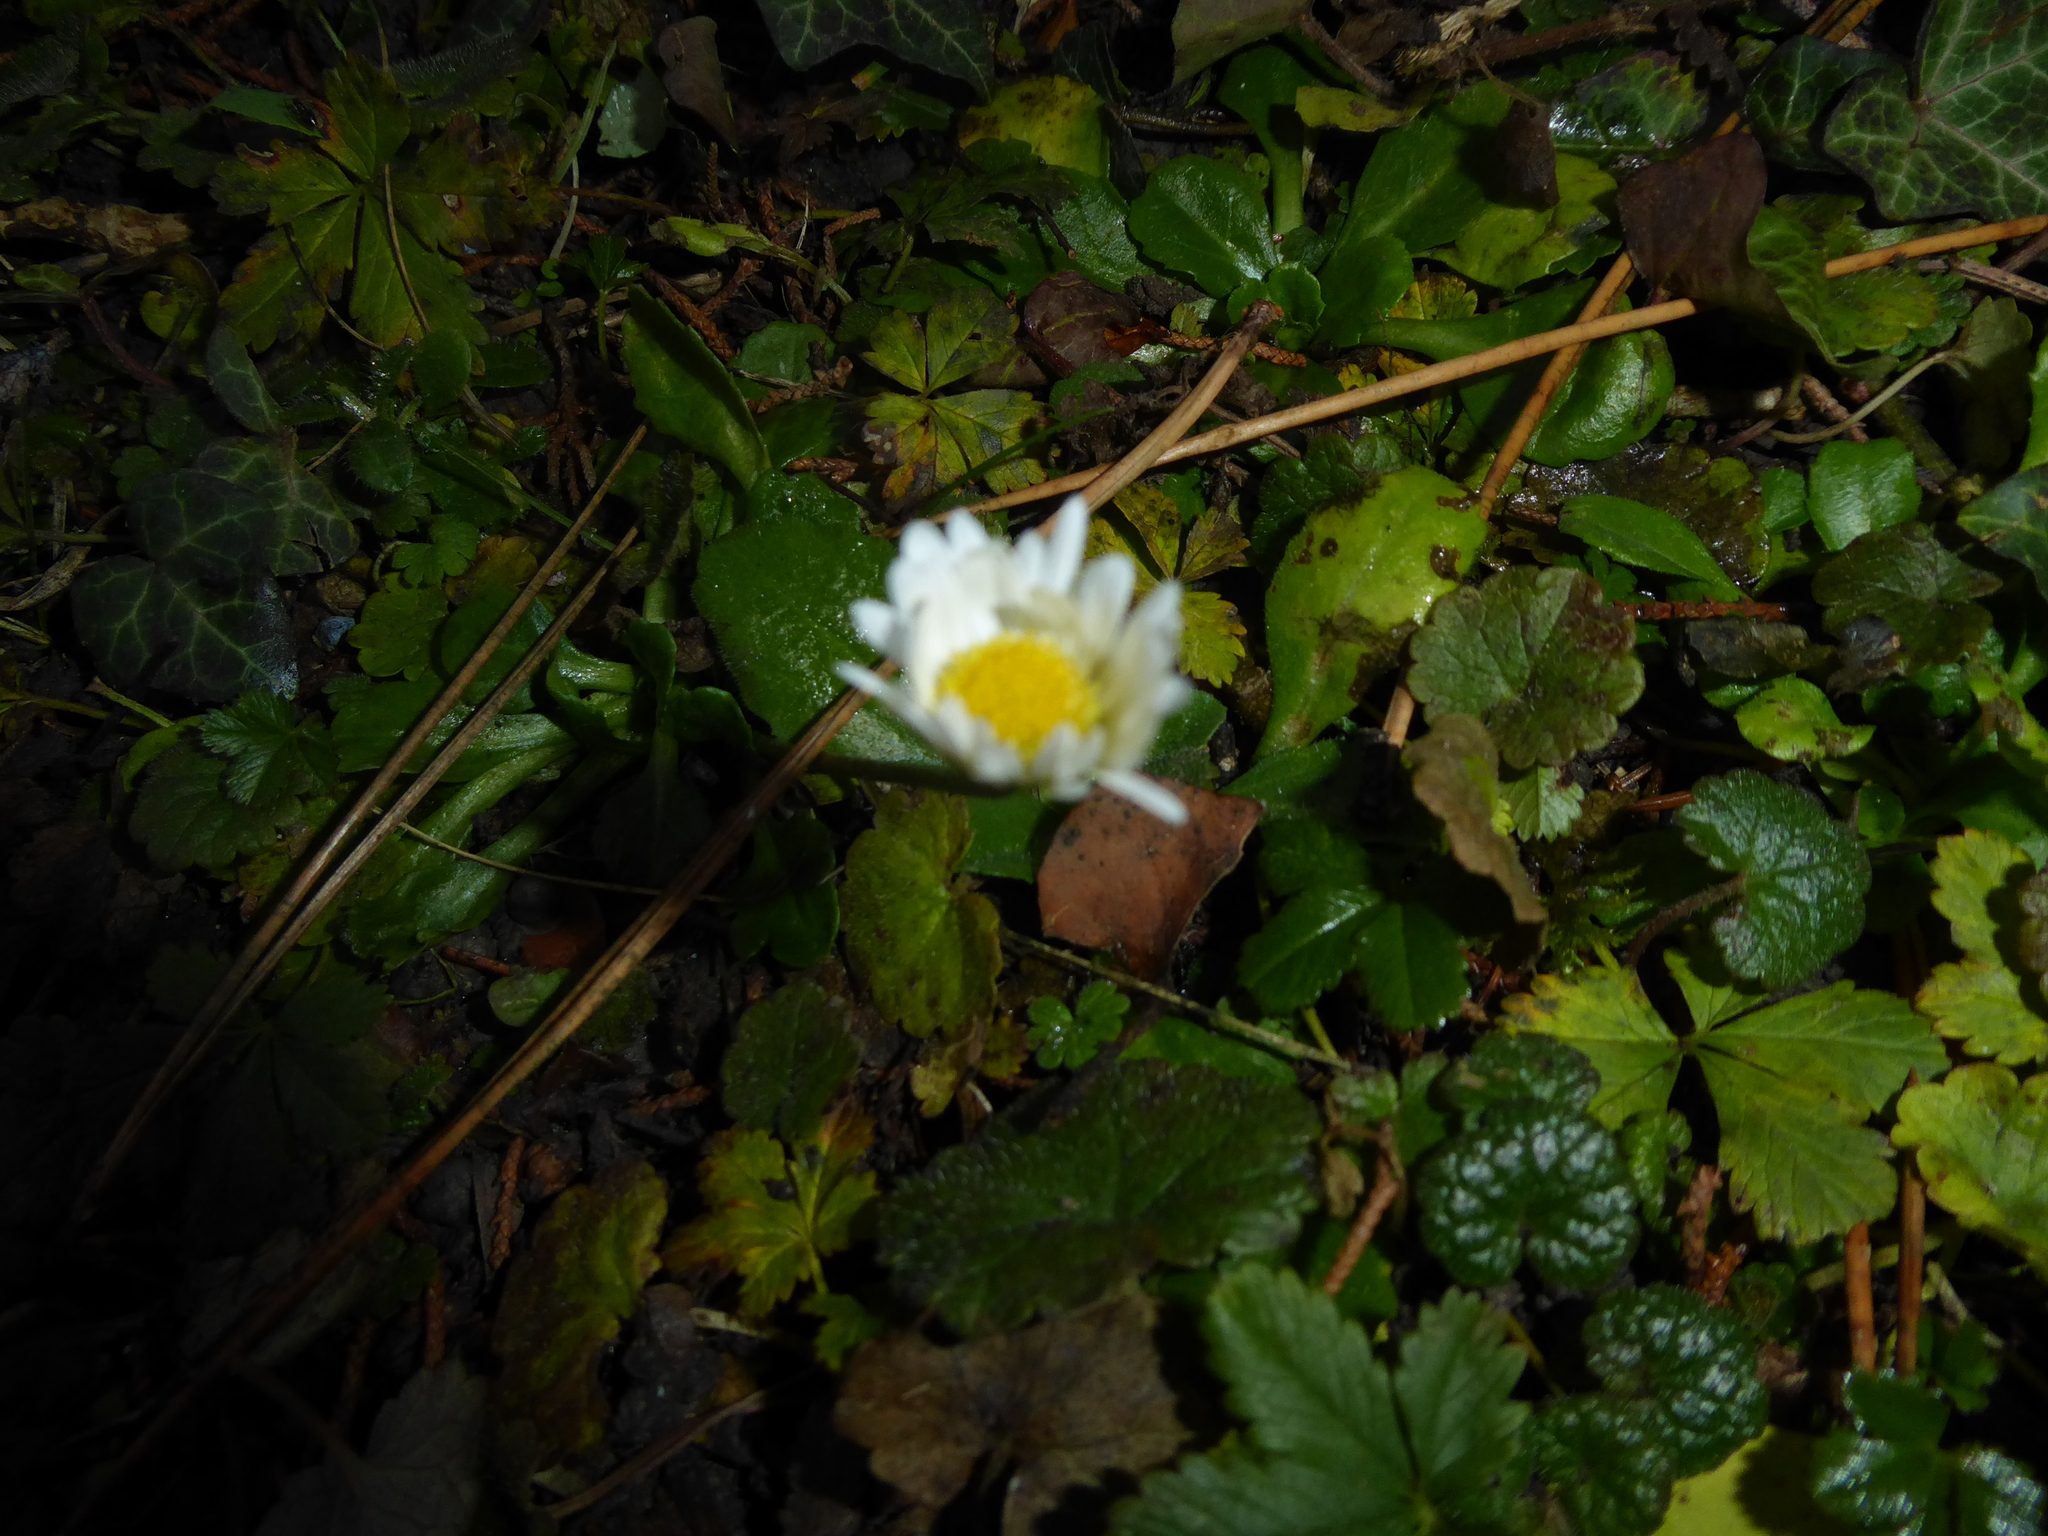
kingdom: Plantae
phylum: Tracheophyta
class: Magnoliopsida
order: Asterales
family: Asteraceae
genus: Bellis
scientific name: Bellis perennis
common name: Lawndaisy
